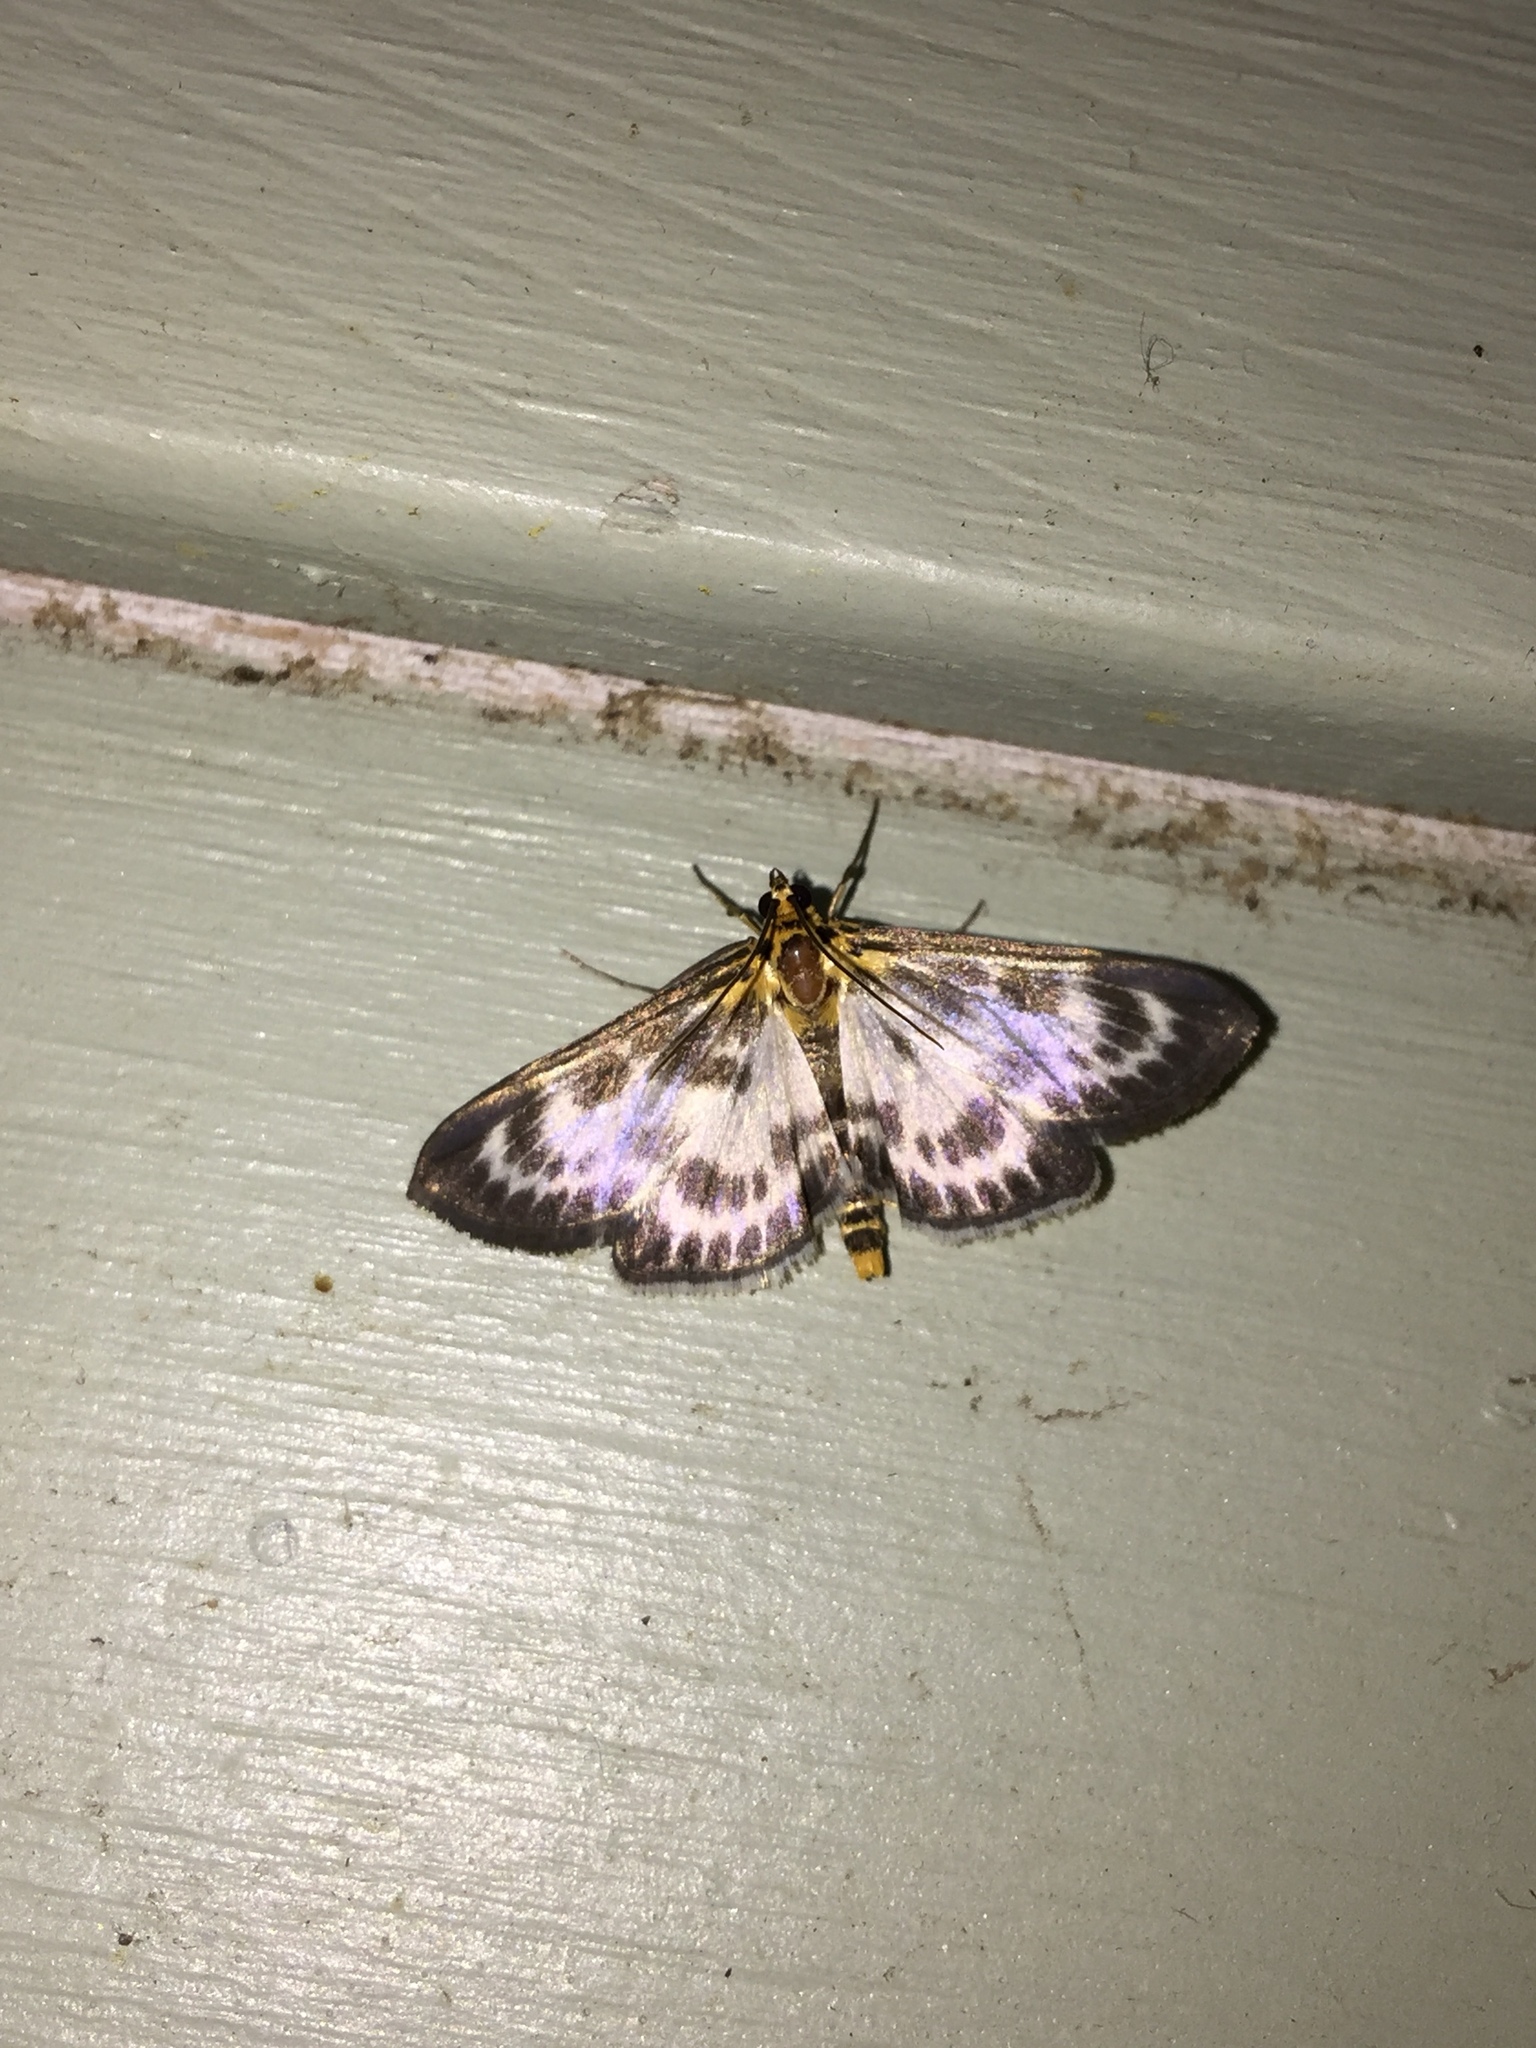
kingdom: Animalia
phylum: Arthropoda
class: Insecta
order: Lepidoptera
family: Crambidae
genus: Anania
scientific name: Anania hortulata
